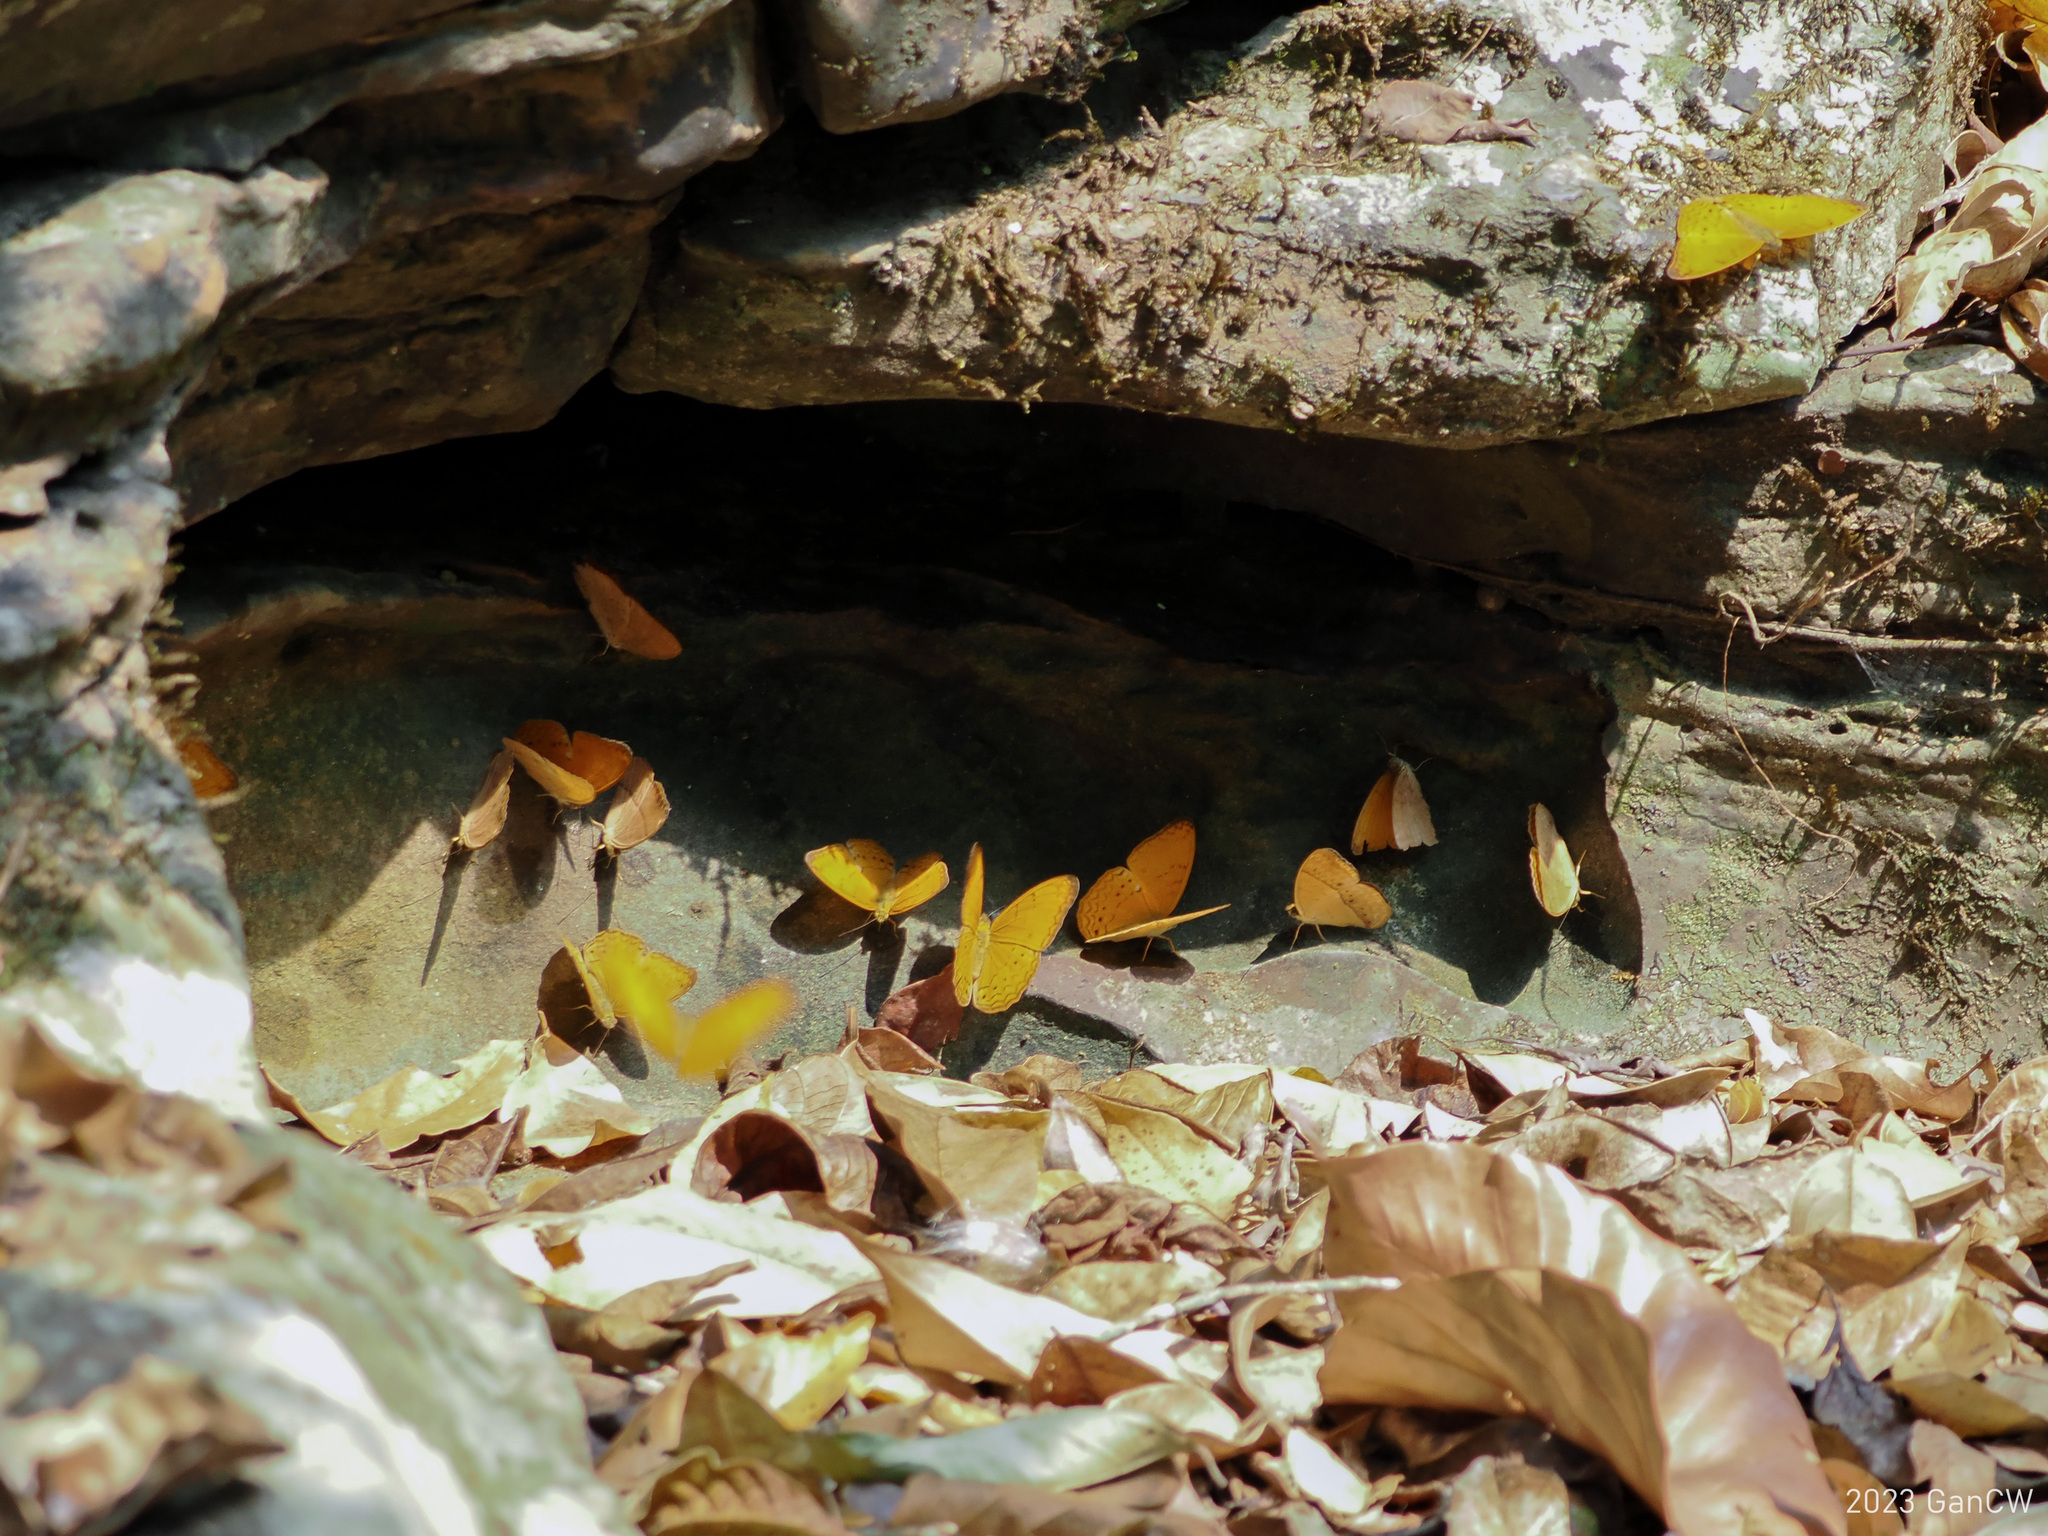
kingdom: Animalia
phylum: Arthropoda
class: Insecta
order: Lepidoptera
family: Nymphalidae
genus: Cirrochroa
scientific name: Cirrochroa tyche
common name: Common yeoman
